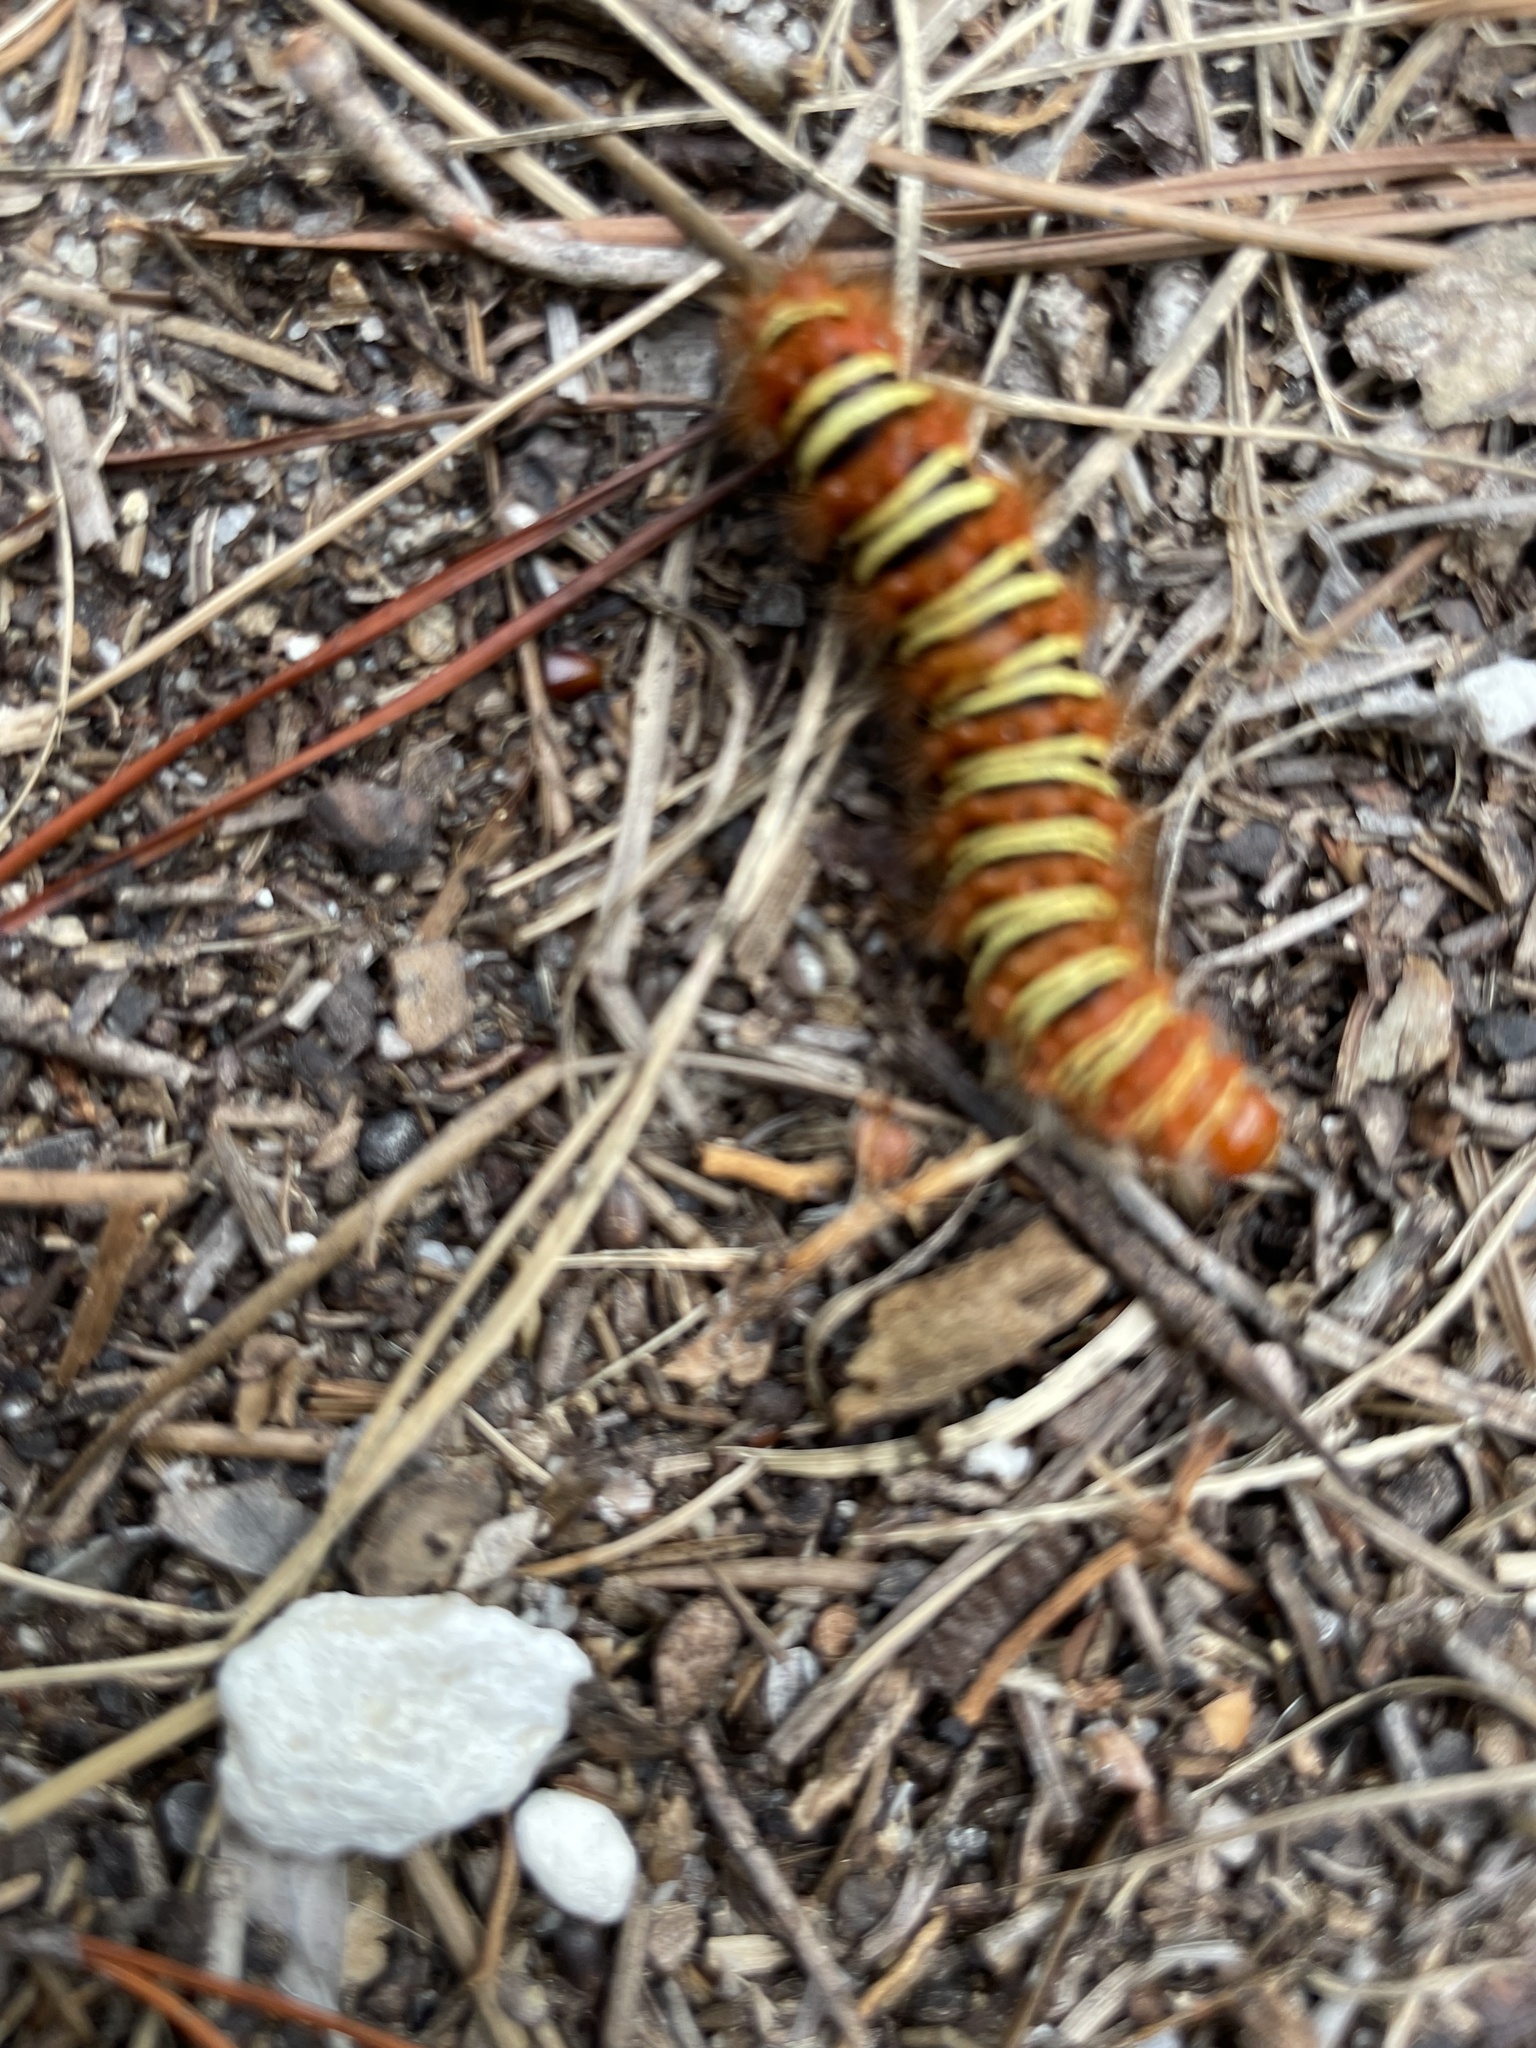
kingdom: Animalia
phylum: Arthropoda
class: Insecta
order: Lepidoptera
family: Erebidae
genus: Seirarctia
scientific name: Seirarctia echo
